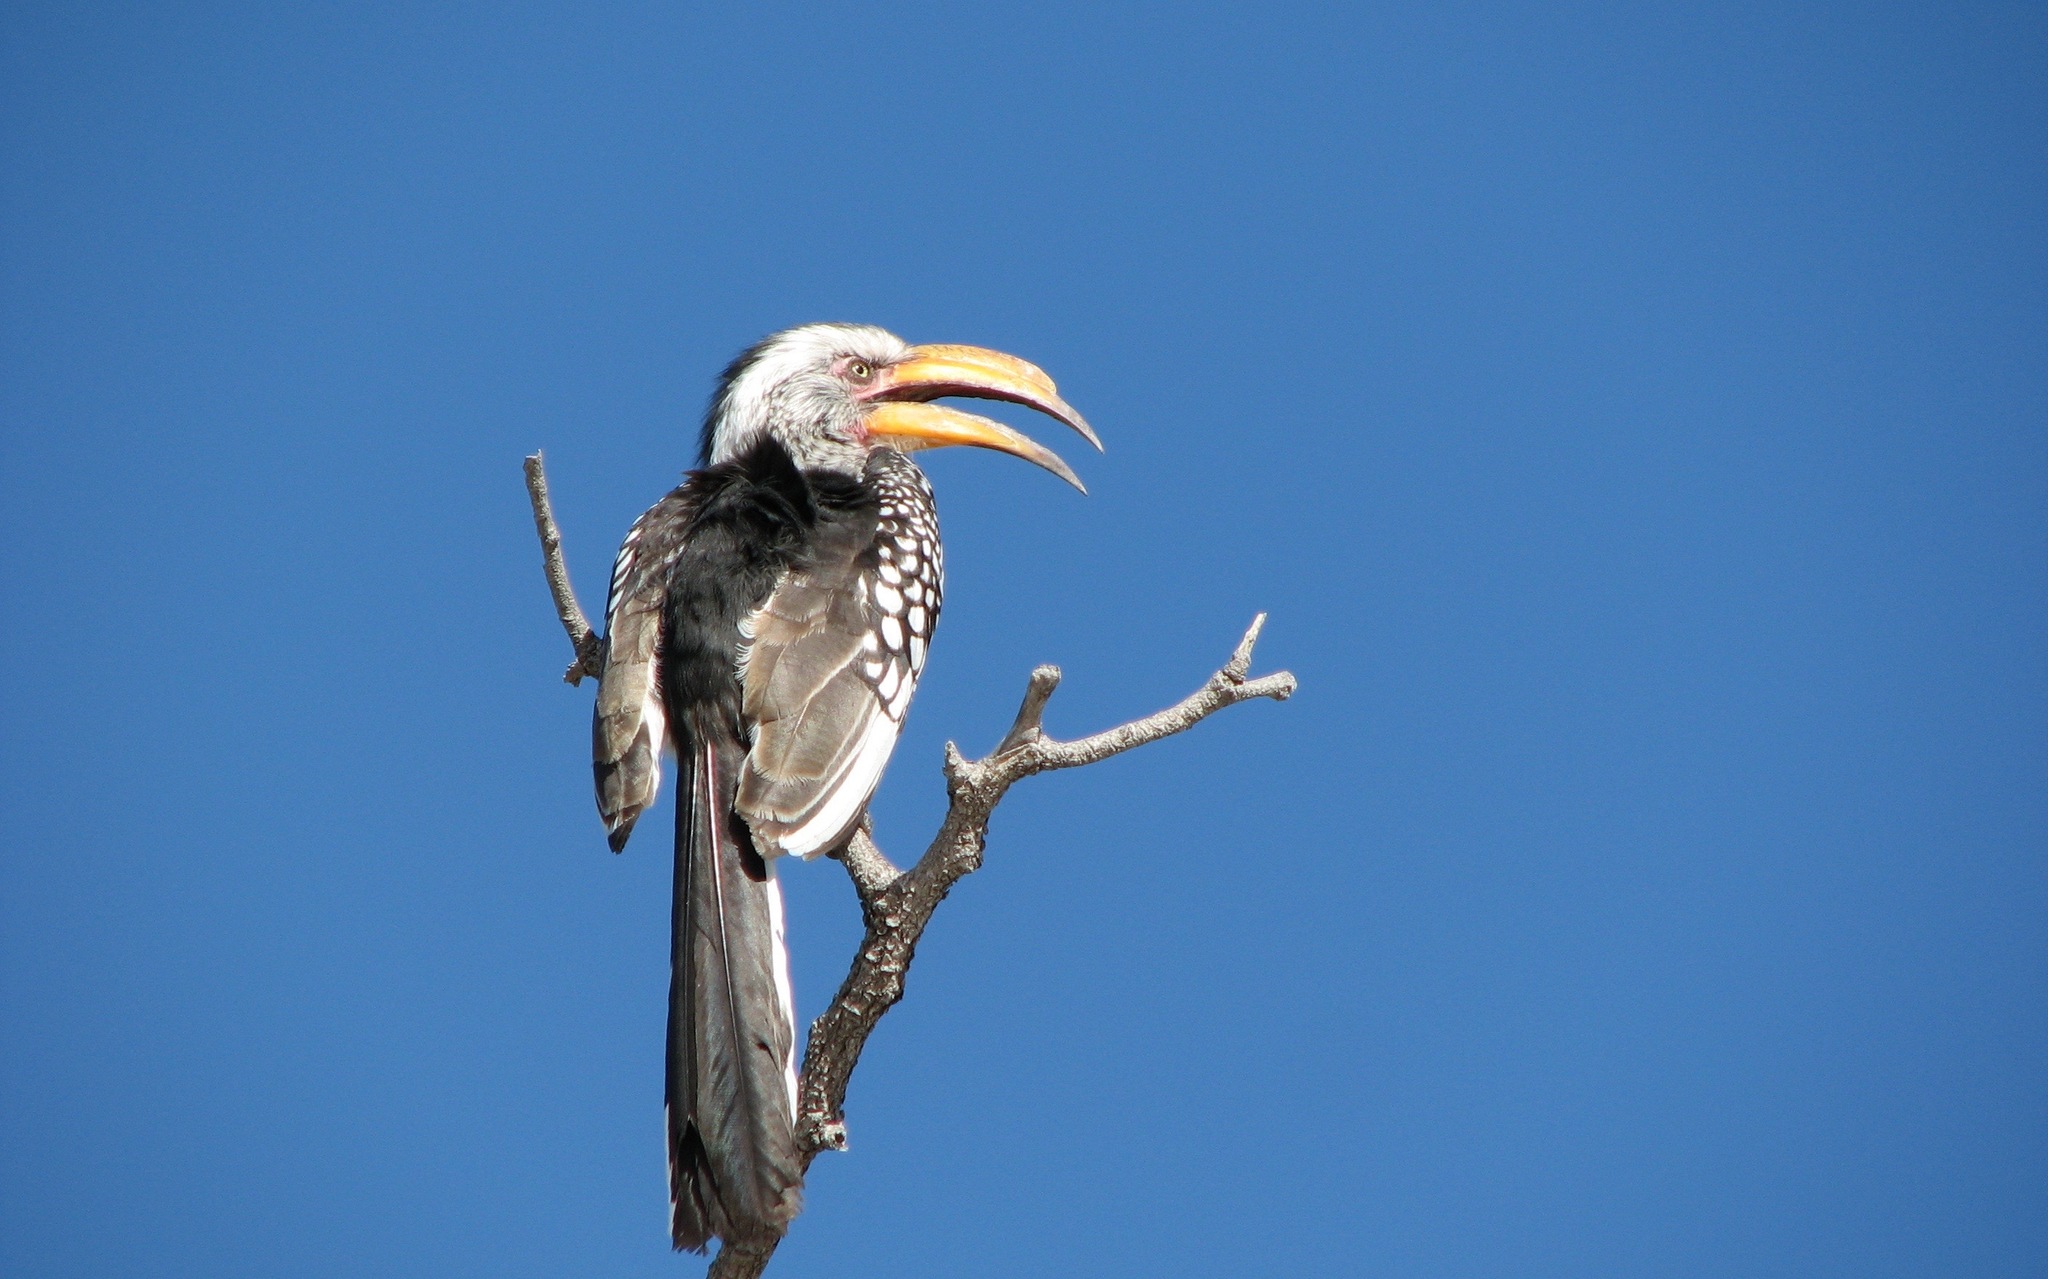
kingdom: Animalia
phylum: Chordata
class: Aves
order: Bucerotiformes
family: Bucerotidae
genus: Tockus
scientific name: Tockus leucomelas
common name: Southern yellow-billed hornbill
